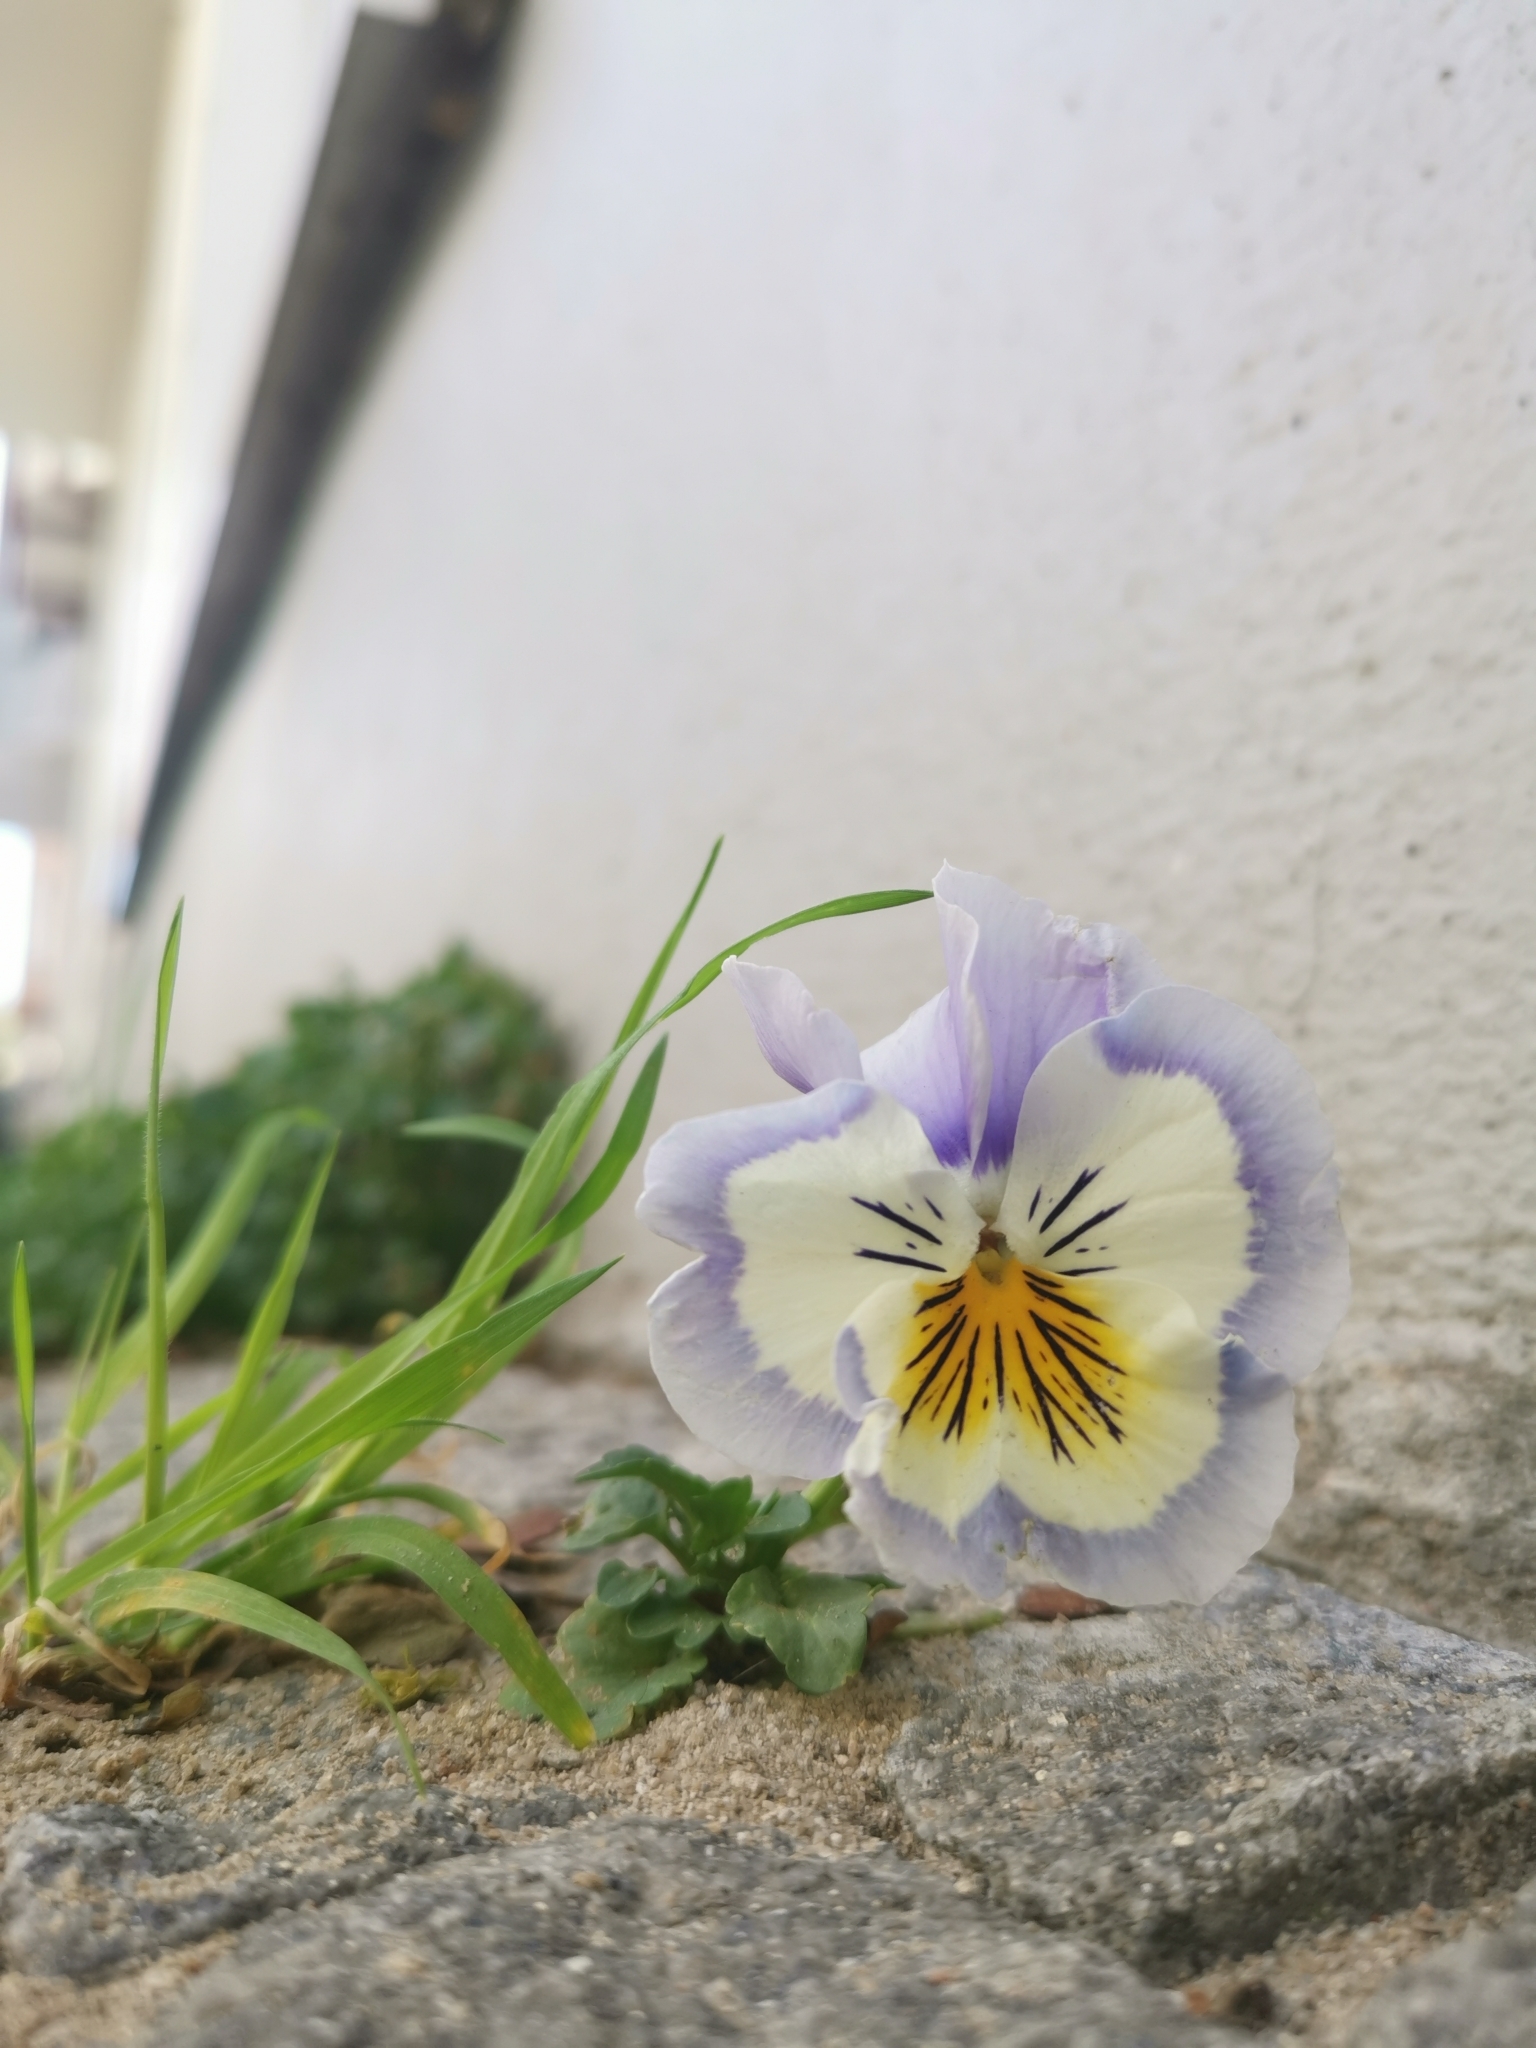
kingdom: Plantae
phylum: Tracheophyta
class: Magnoliopsida
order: Malpighiales
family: Violaceae
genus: Viola
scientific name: Viola wittrockiana
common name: Garden pansy
